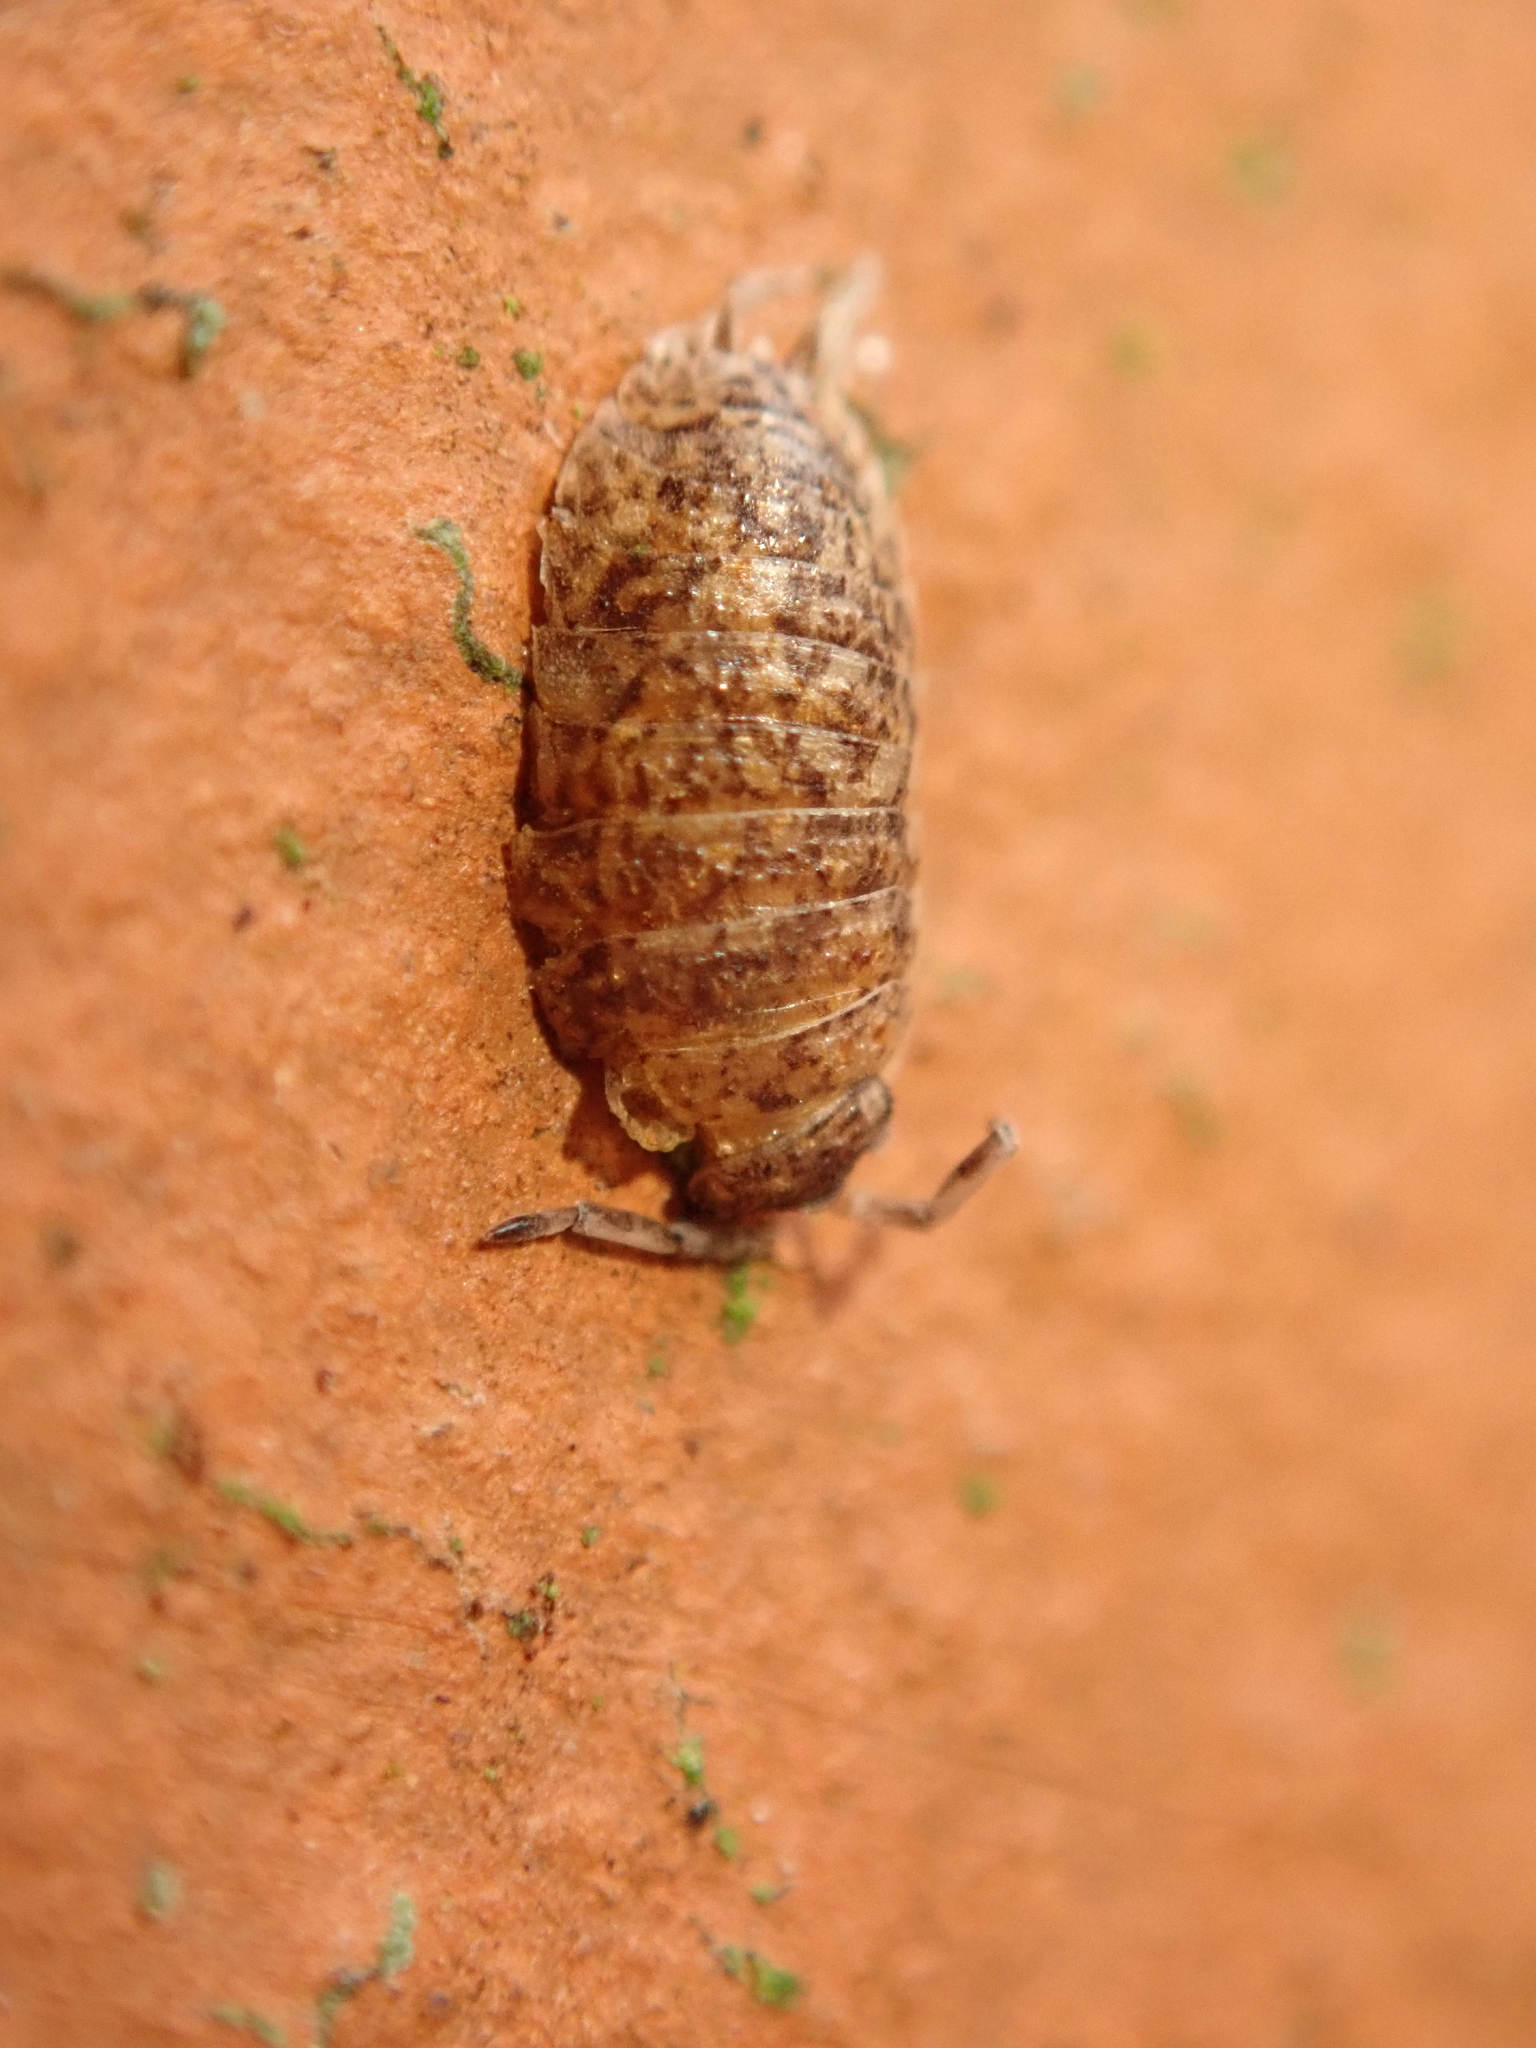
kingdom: Animalia
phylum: Arthropoda
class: Malacostraca
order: Isopoda
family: Porcellionidae
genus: Porcellio
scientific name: Porcellio scaber
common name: Common rough woodlouse
